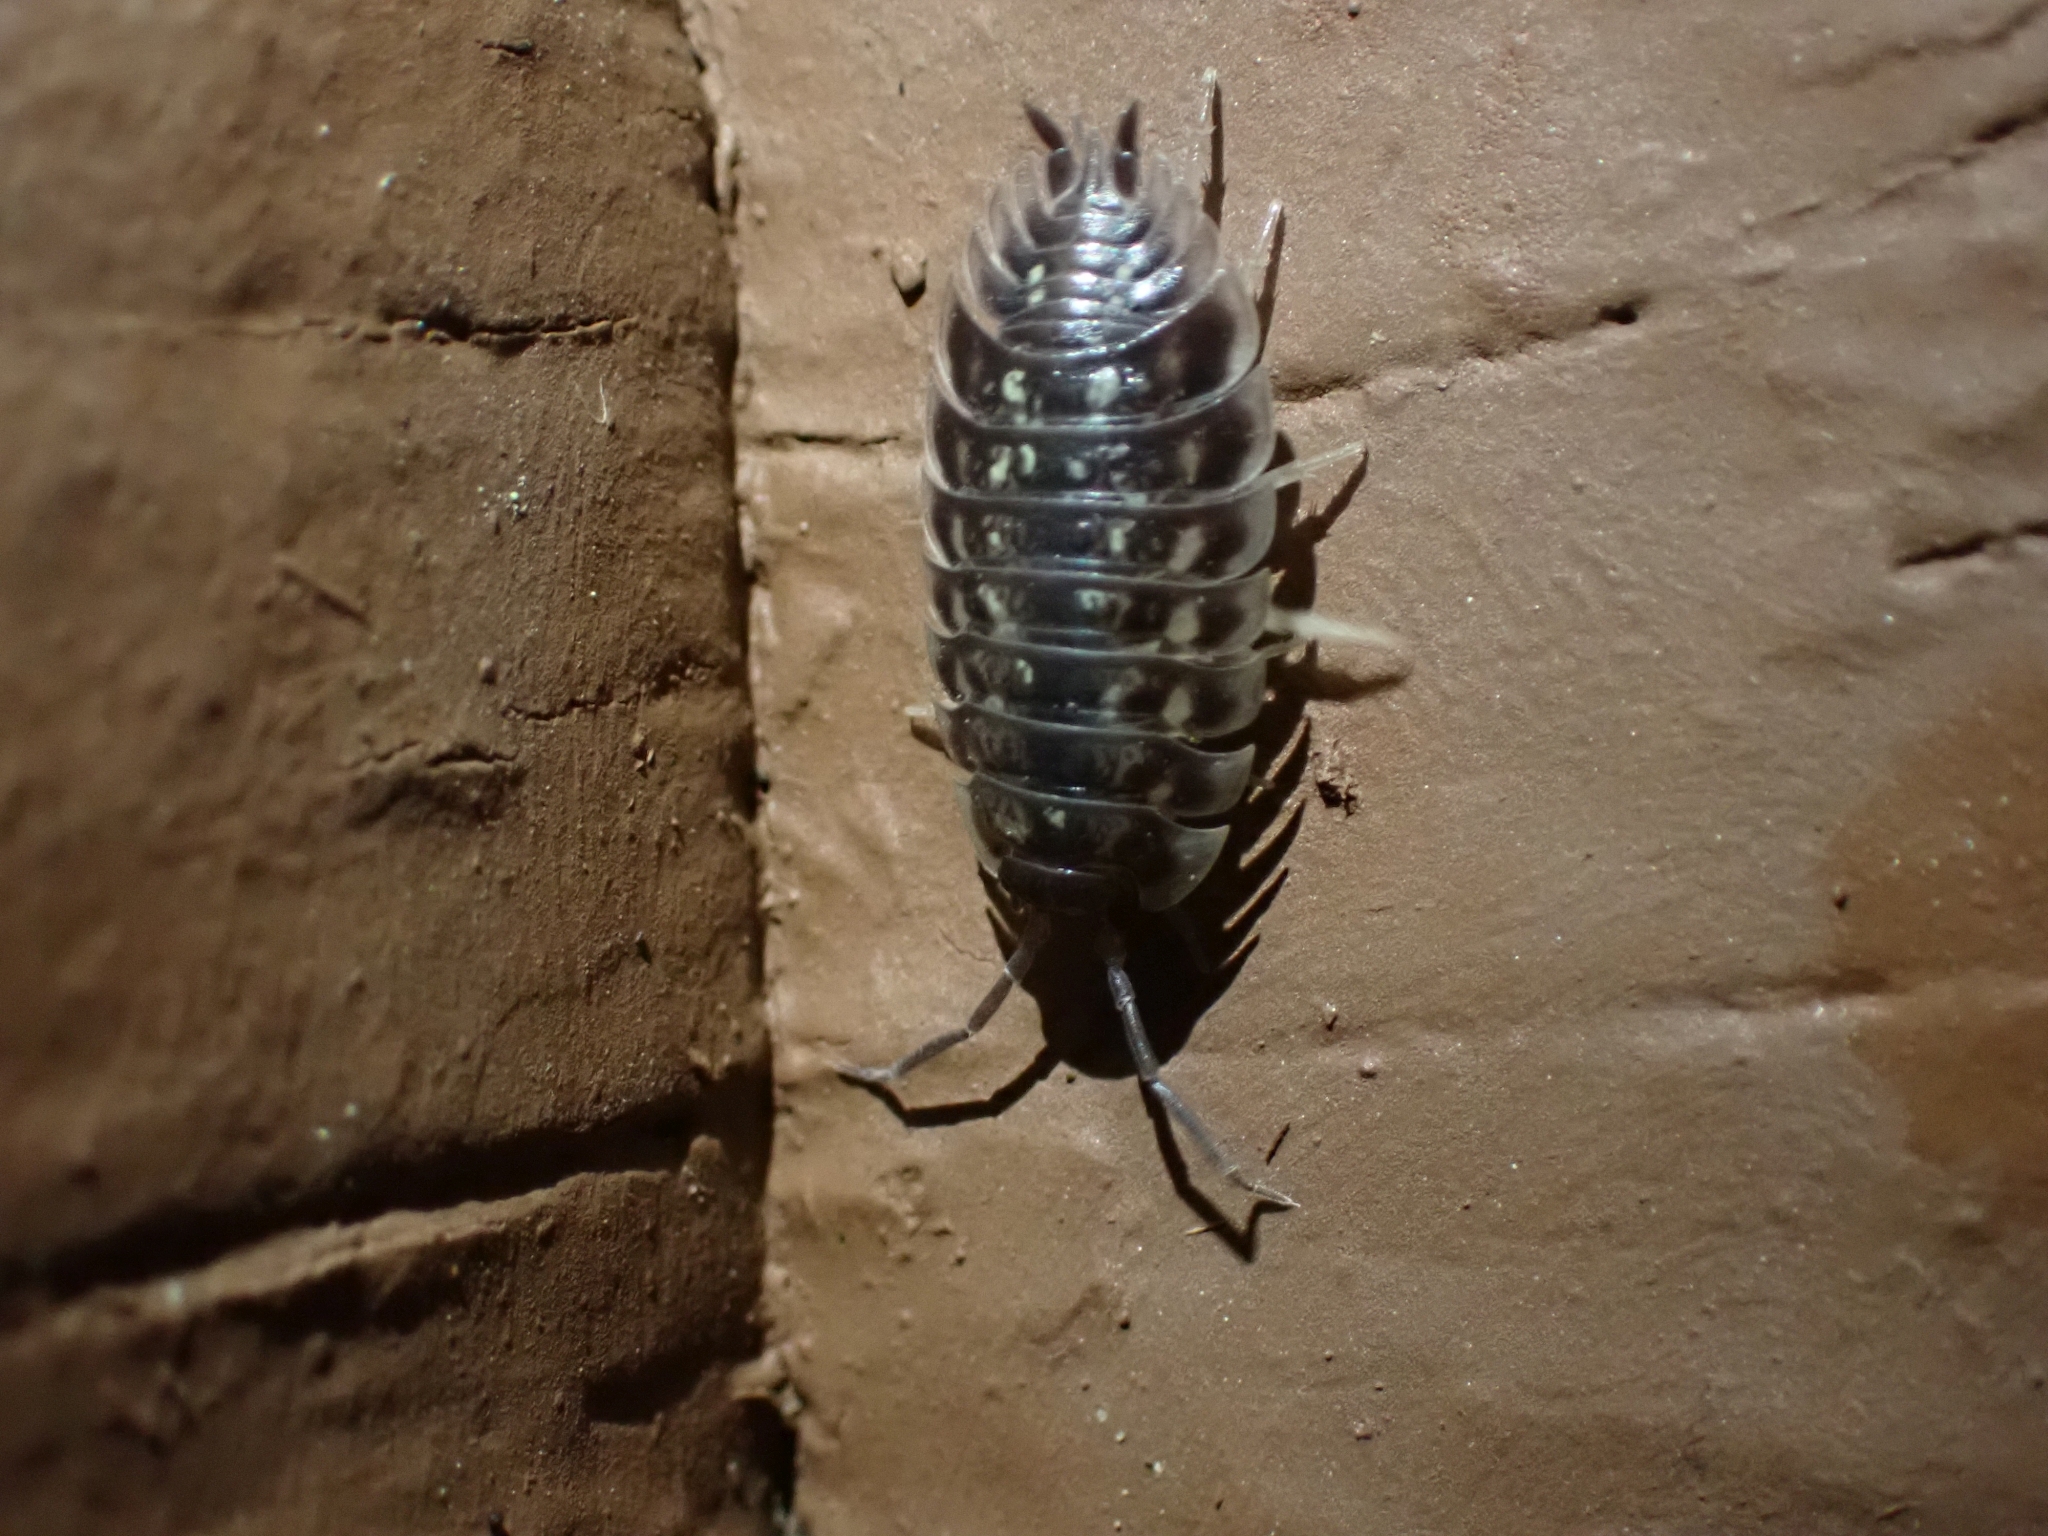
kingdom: Animalia
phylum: Arthropoda
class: Malacostraca
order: Isopoda
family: Oniscidae
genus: Oniscus
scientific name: Oniscus asellus
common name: Common shiny woodlouse
